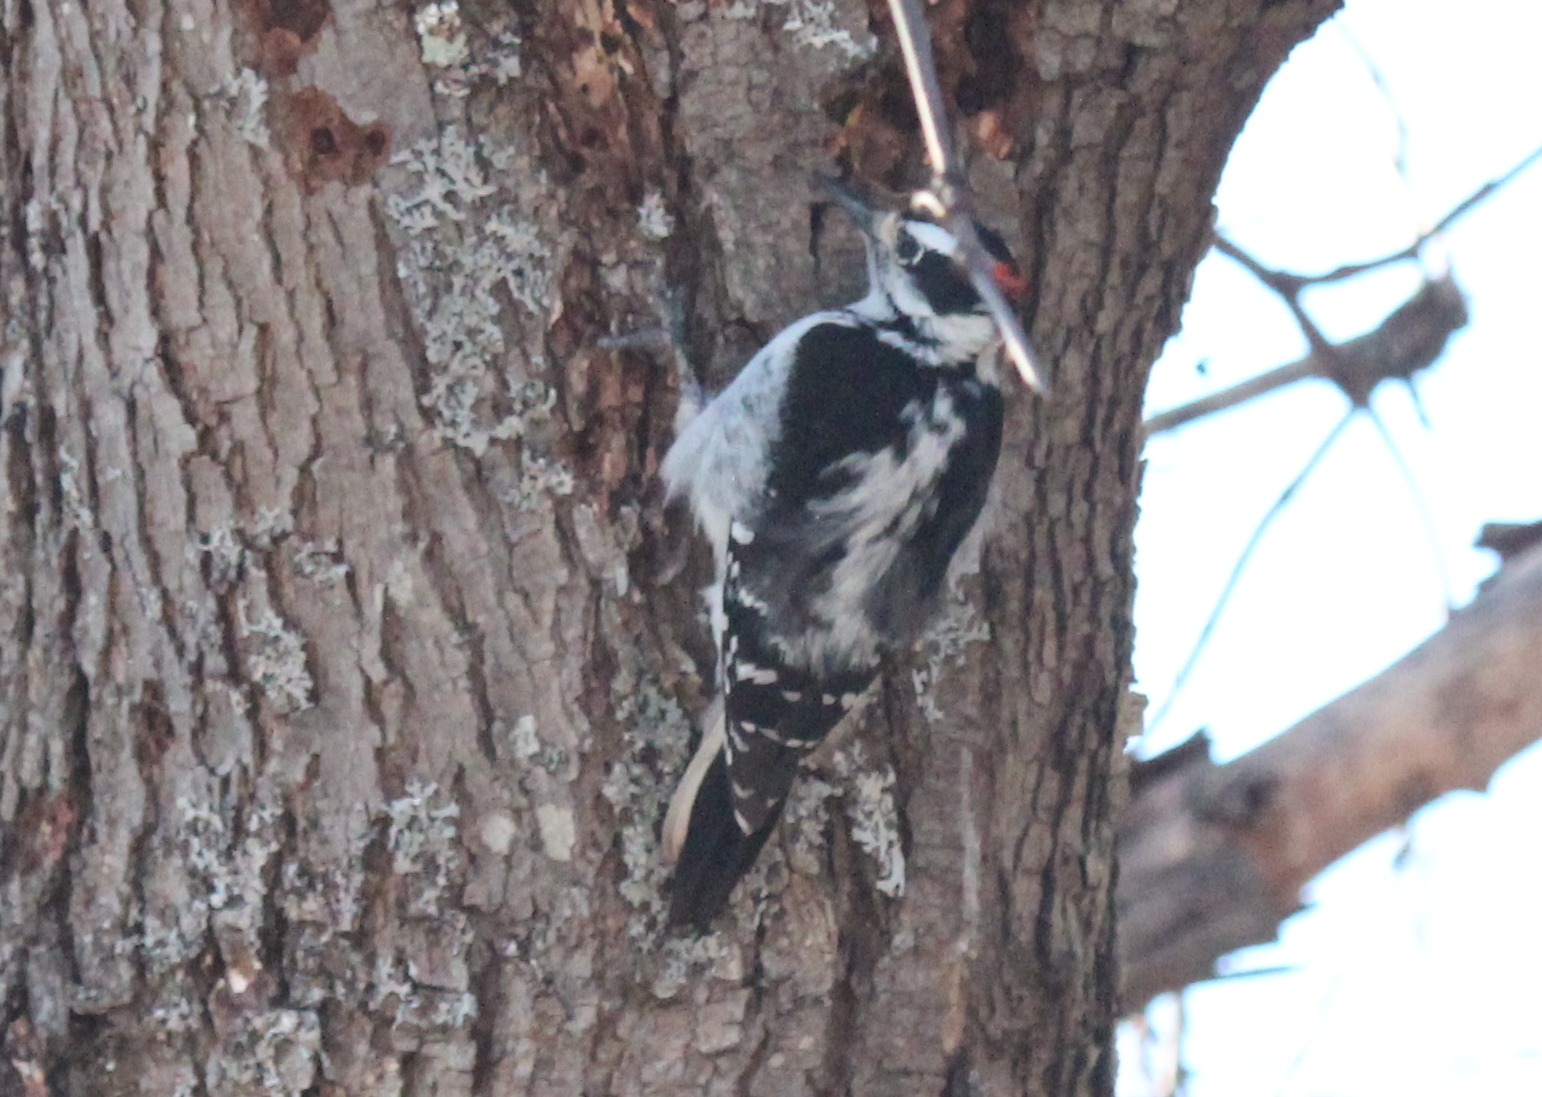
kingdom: Animalia
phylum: Chordata
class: Aves
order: Piciformes
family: Picidae
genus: Leuconotopicus
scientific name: Leuconotopicus villosus
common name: Hairy woodpecker
